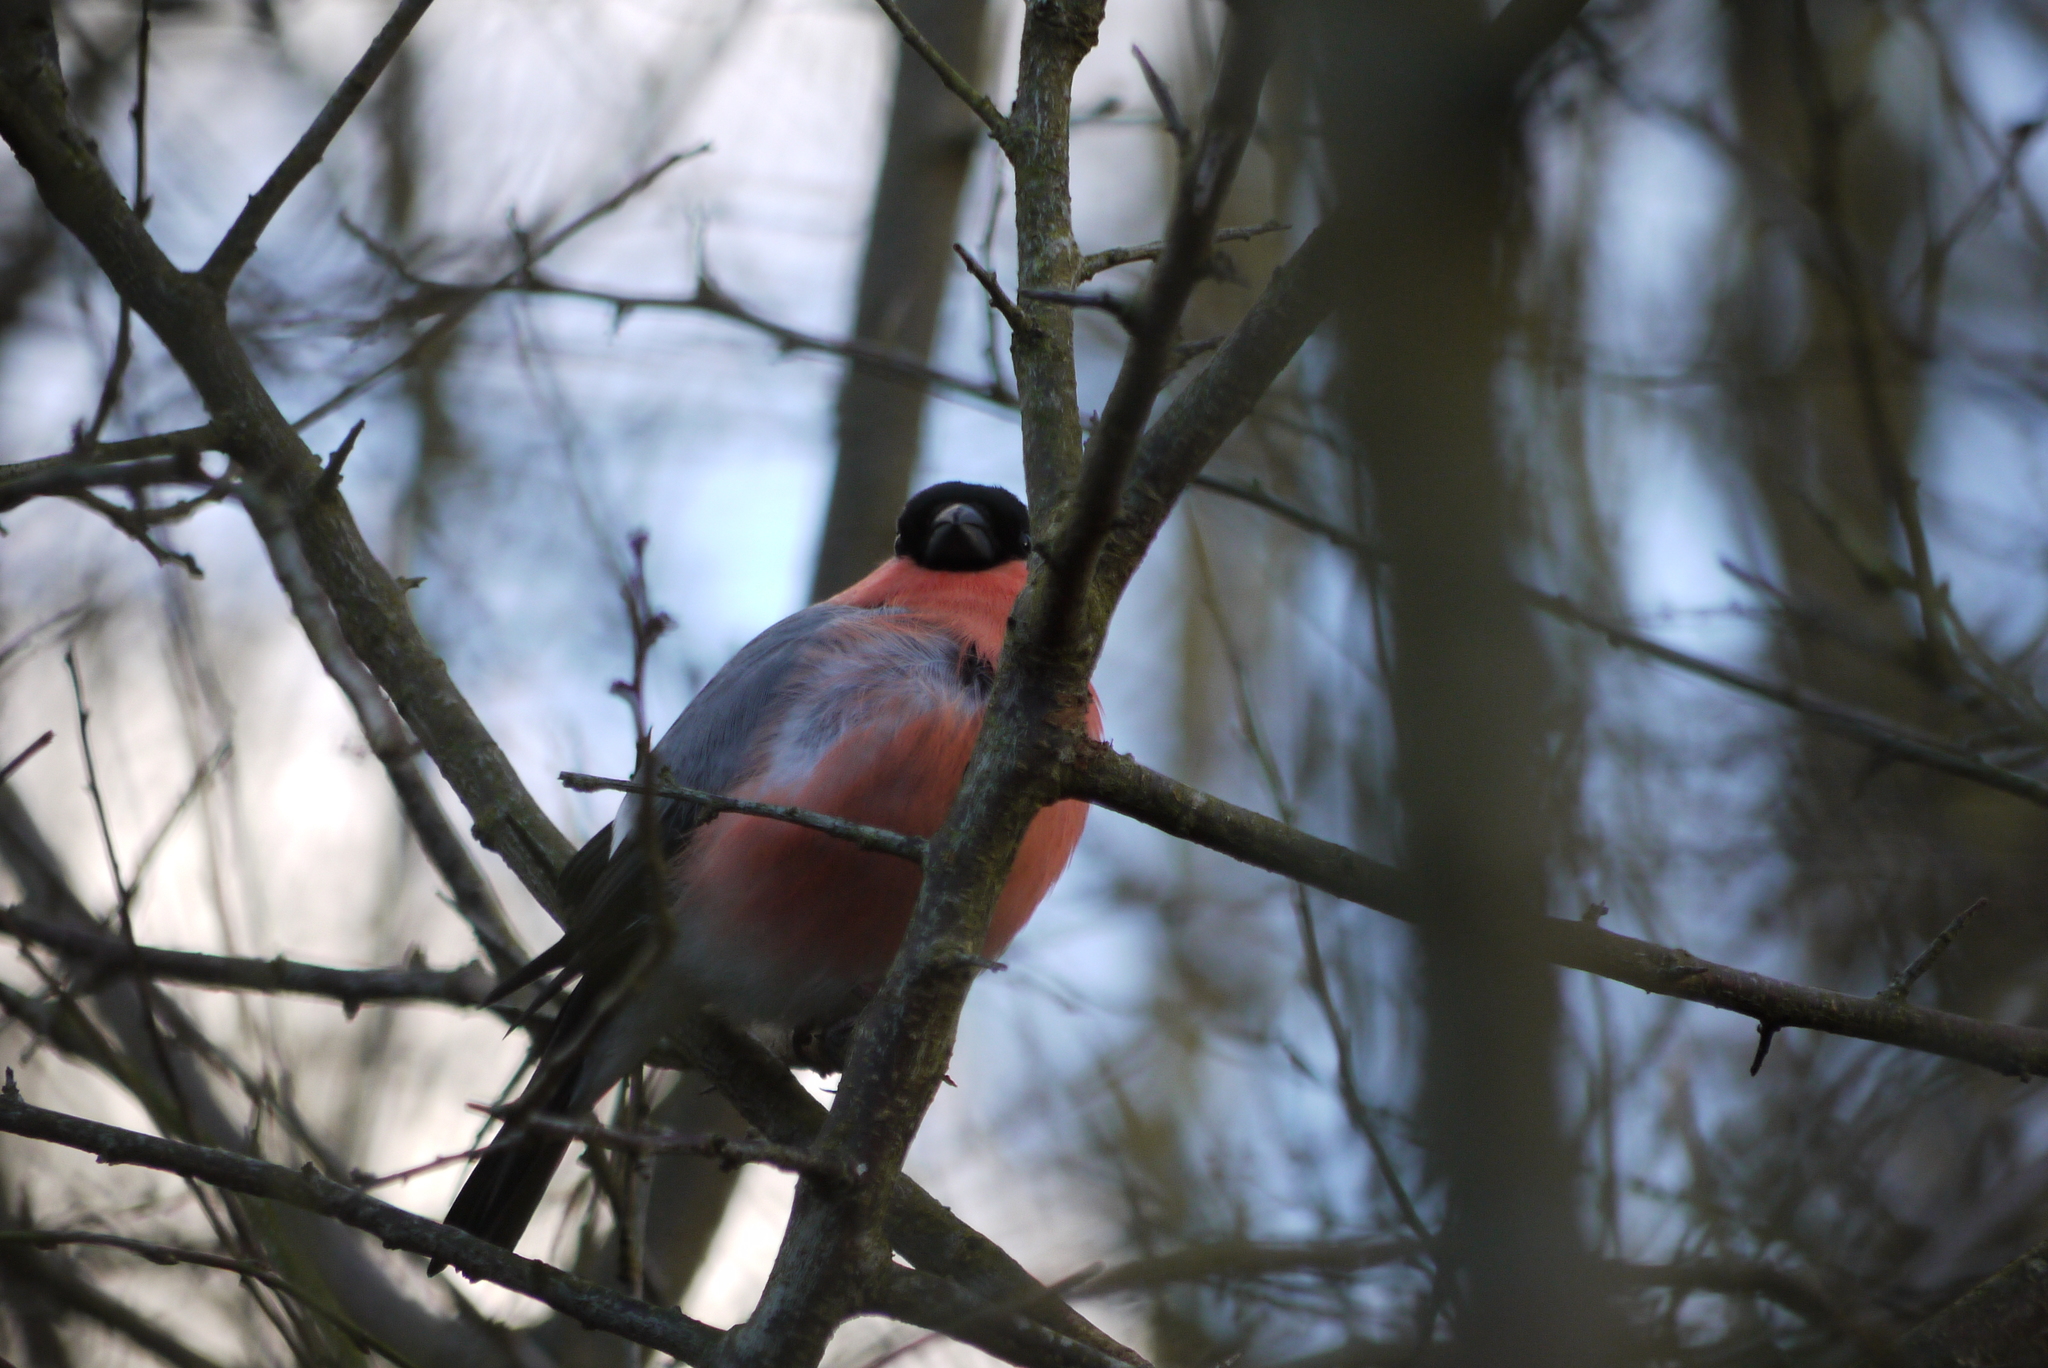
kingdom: Animalia
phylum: Chordata
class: Aves
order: Passeriformes
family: Fringillidae
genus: Pyrrhula
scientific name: Pyrrhula pyrrhula
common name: Eurasian bullfinch
